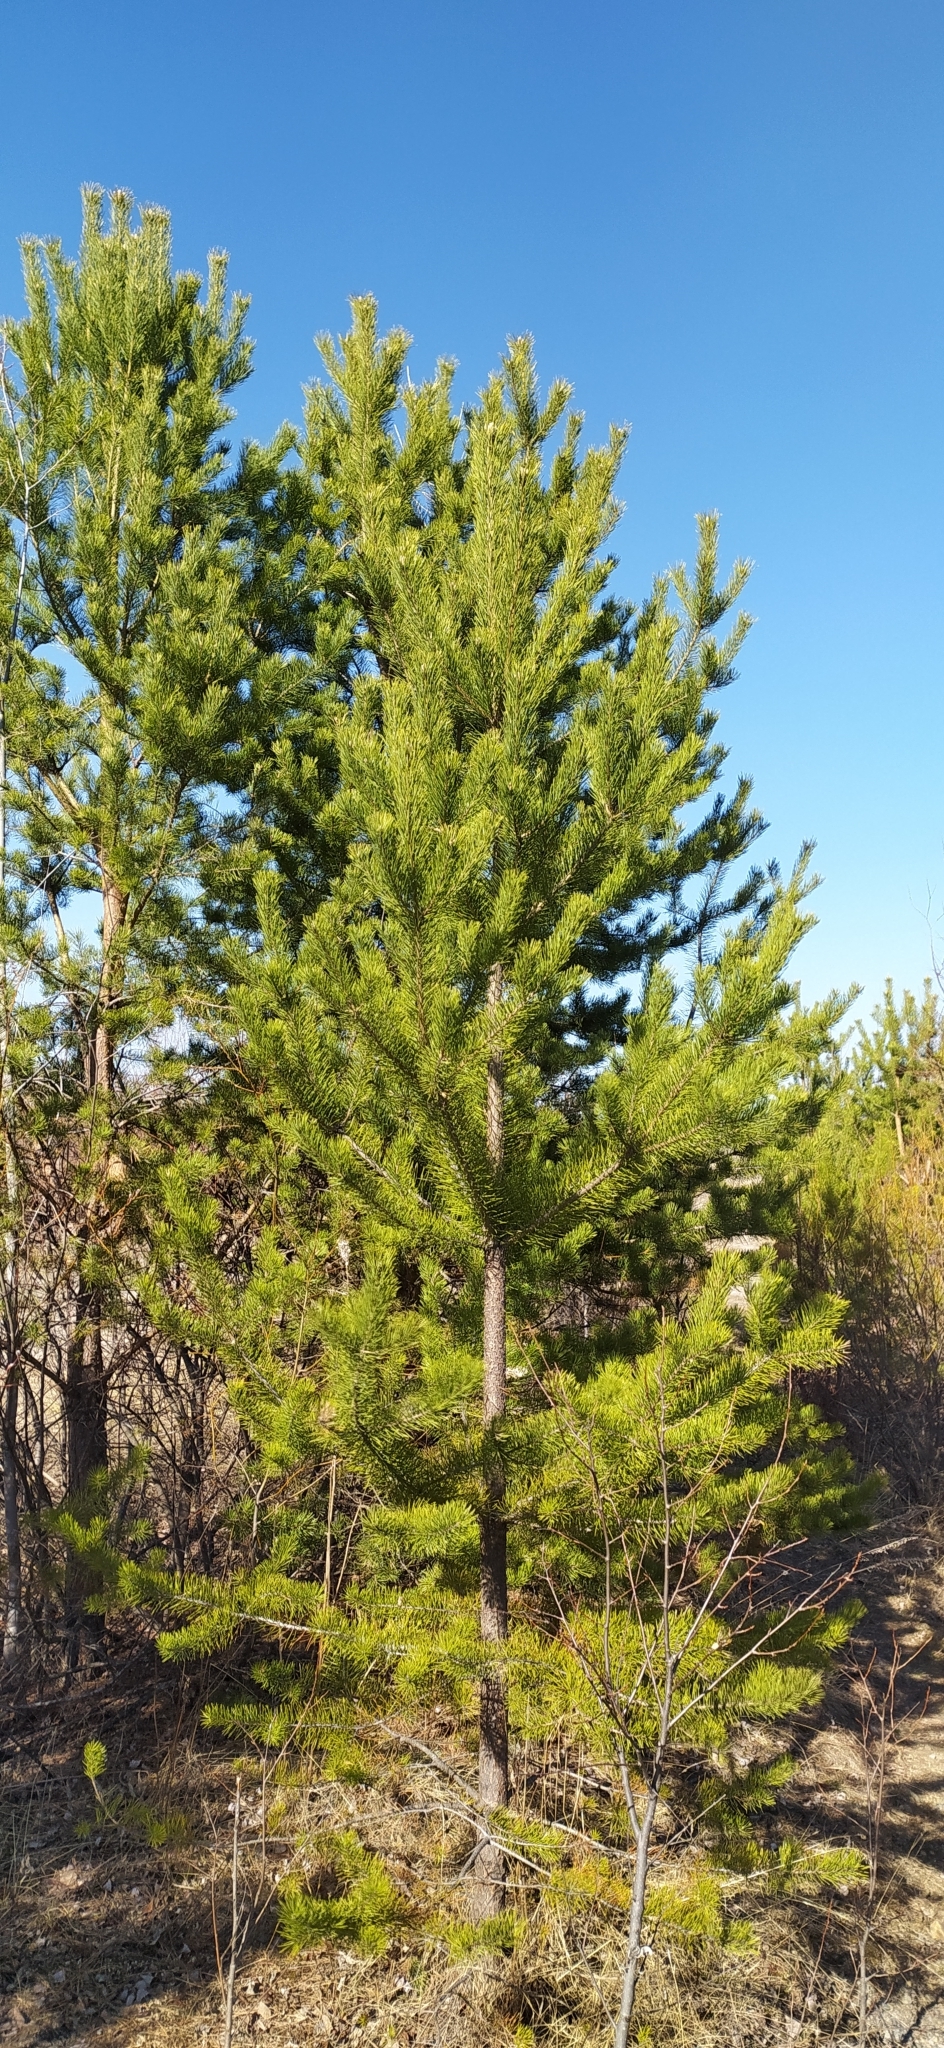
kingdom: Plantae
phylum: Tracheophyta
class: Pinopsida
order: Pinales
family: Pinaceae
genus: Pinus
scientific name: Pinus sylvestris
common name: Scots pine
